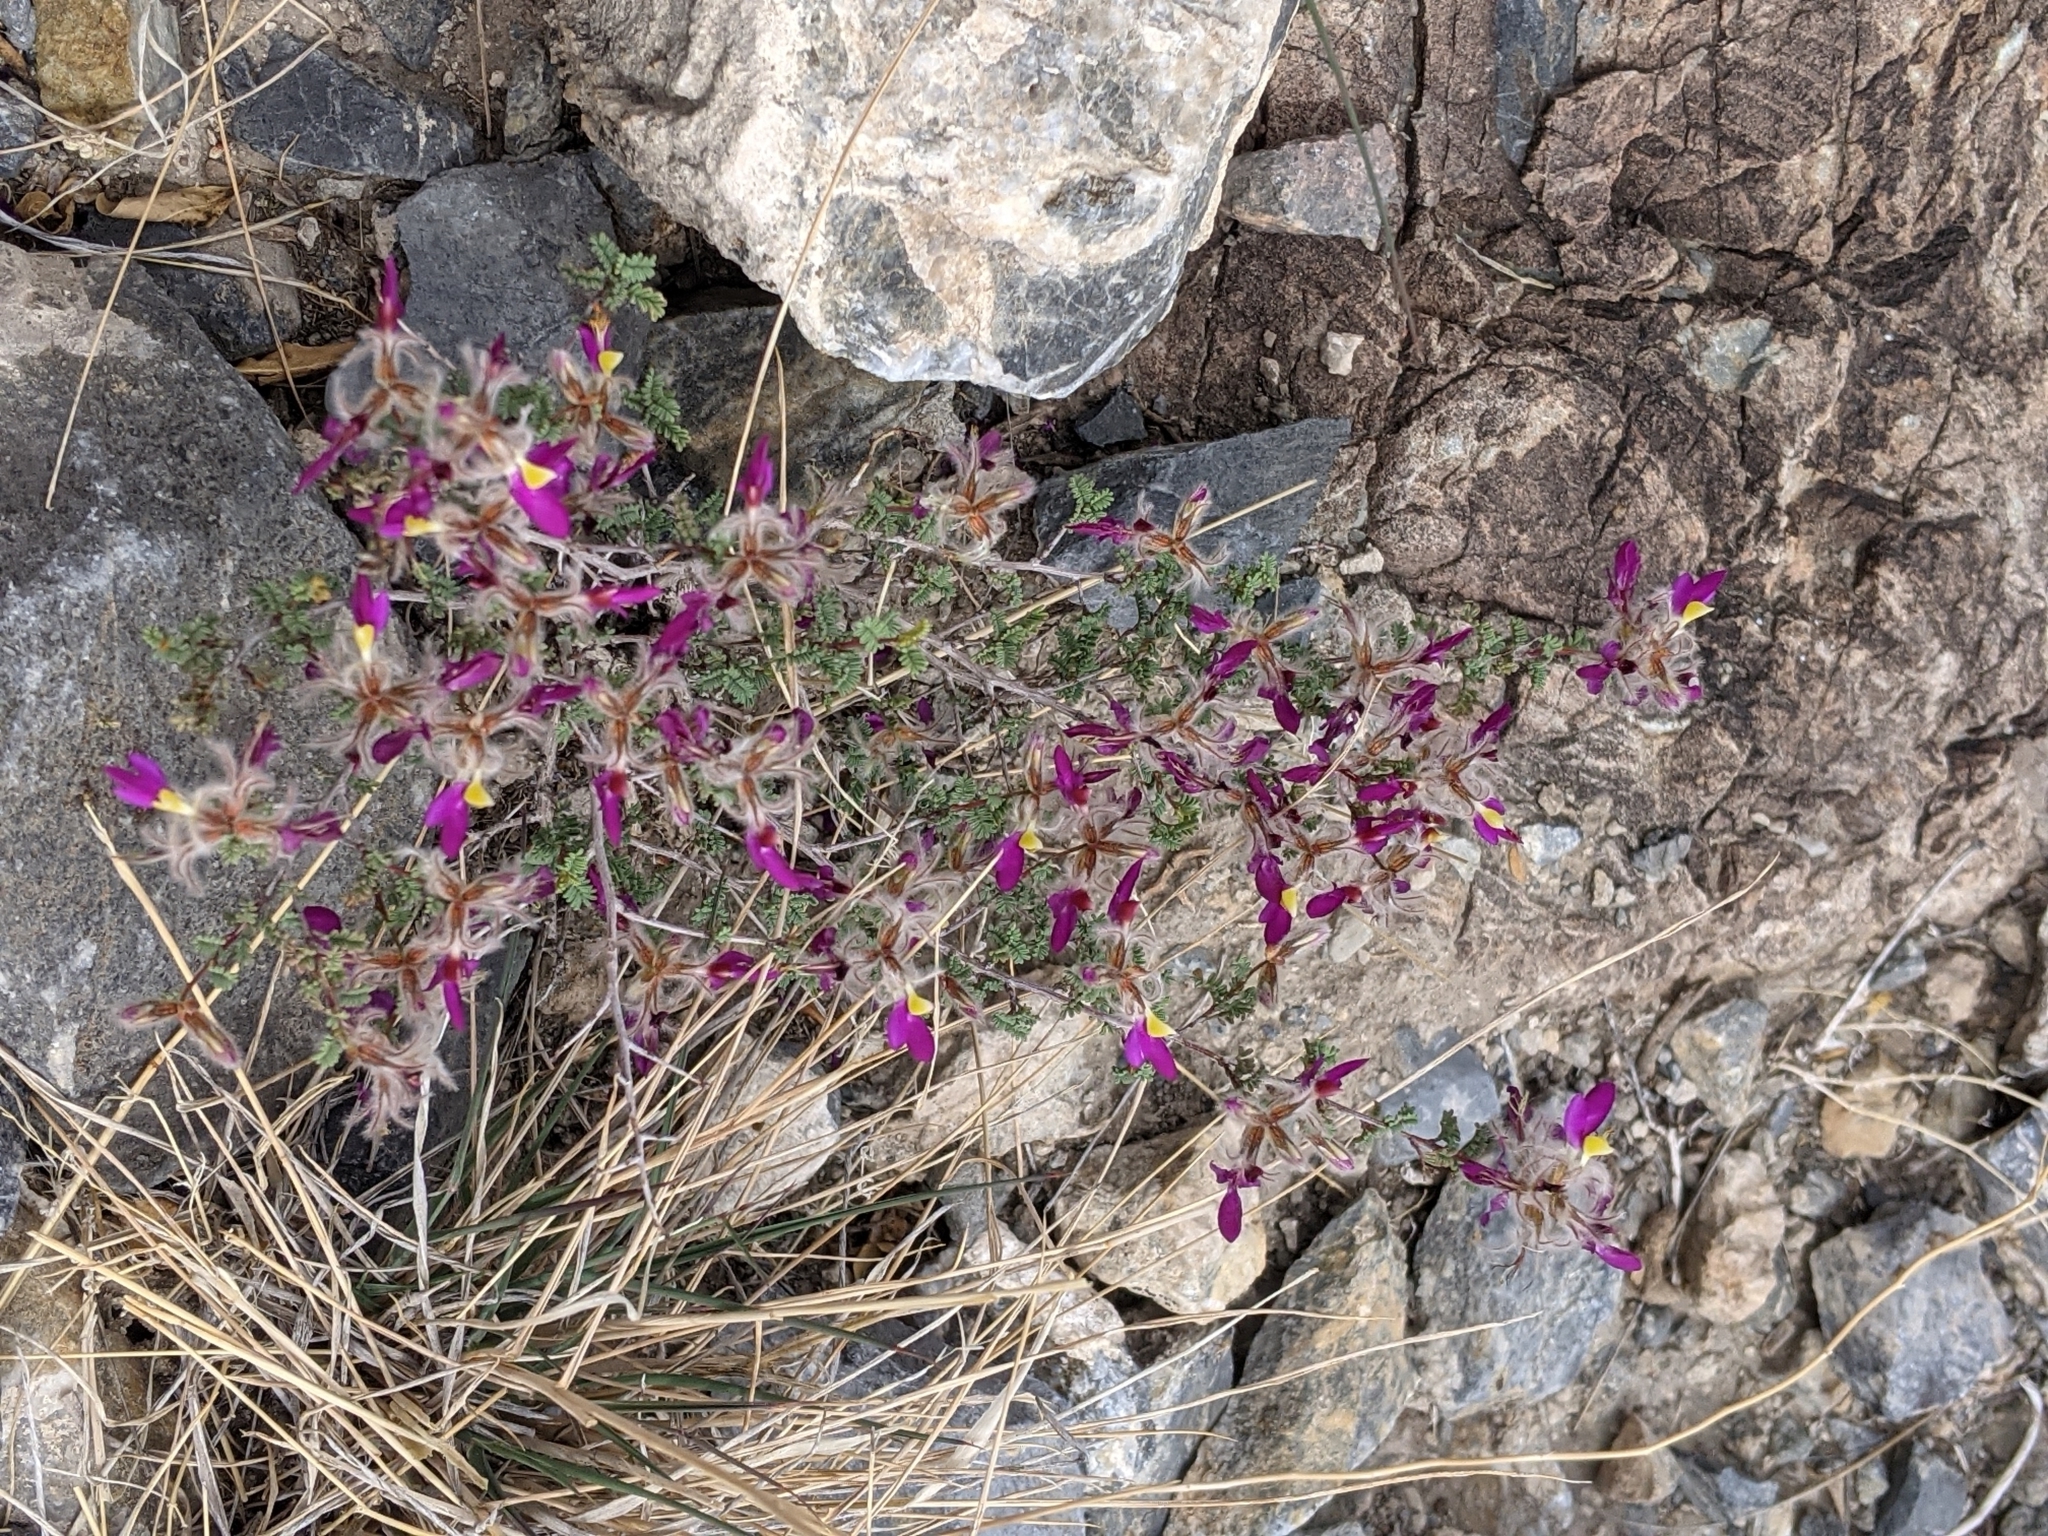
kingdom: Plantae
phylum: Tracheophyta
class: Magnoliopsida
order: Fabales
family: Fabaceae
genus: Dalea
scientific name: Dalea formosa
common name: Feather-plume dalea
